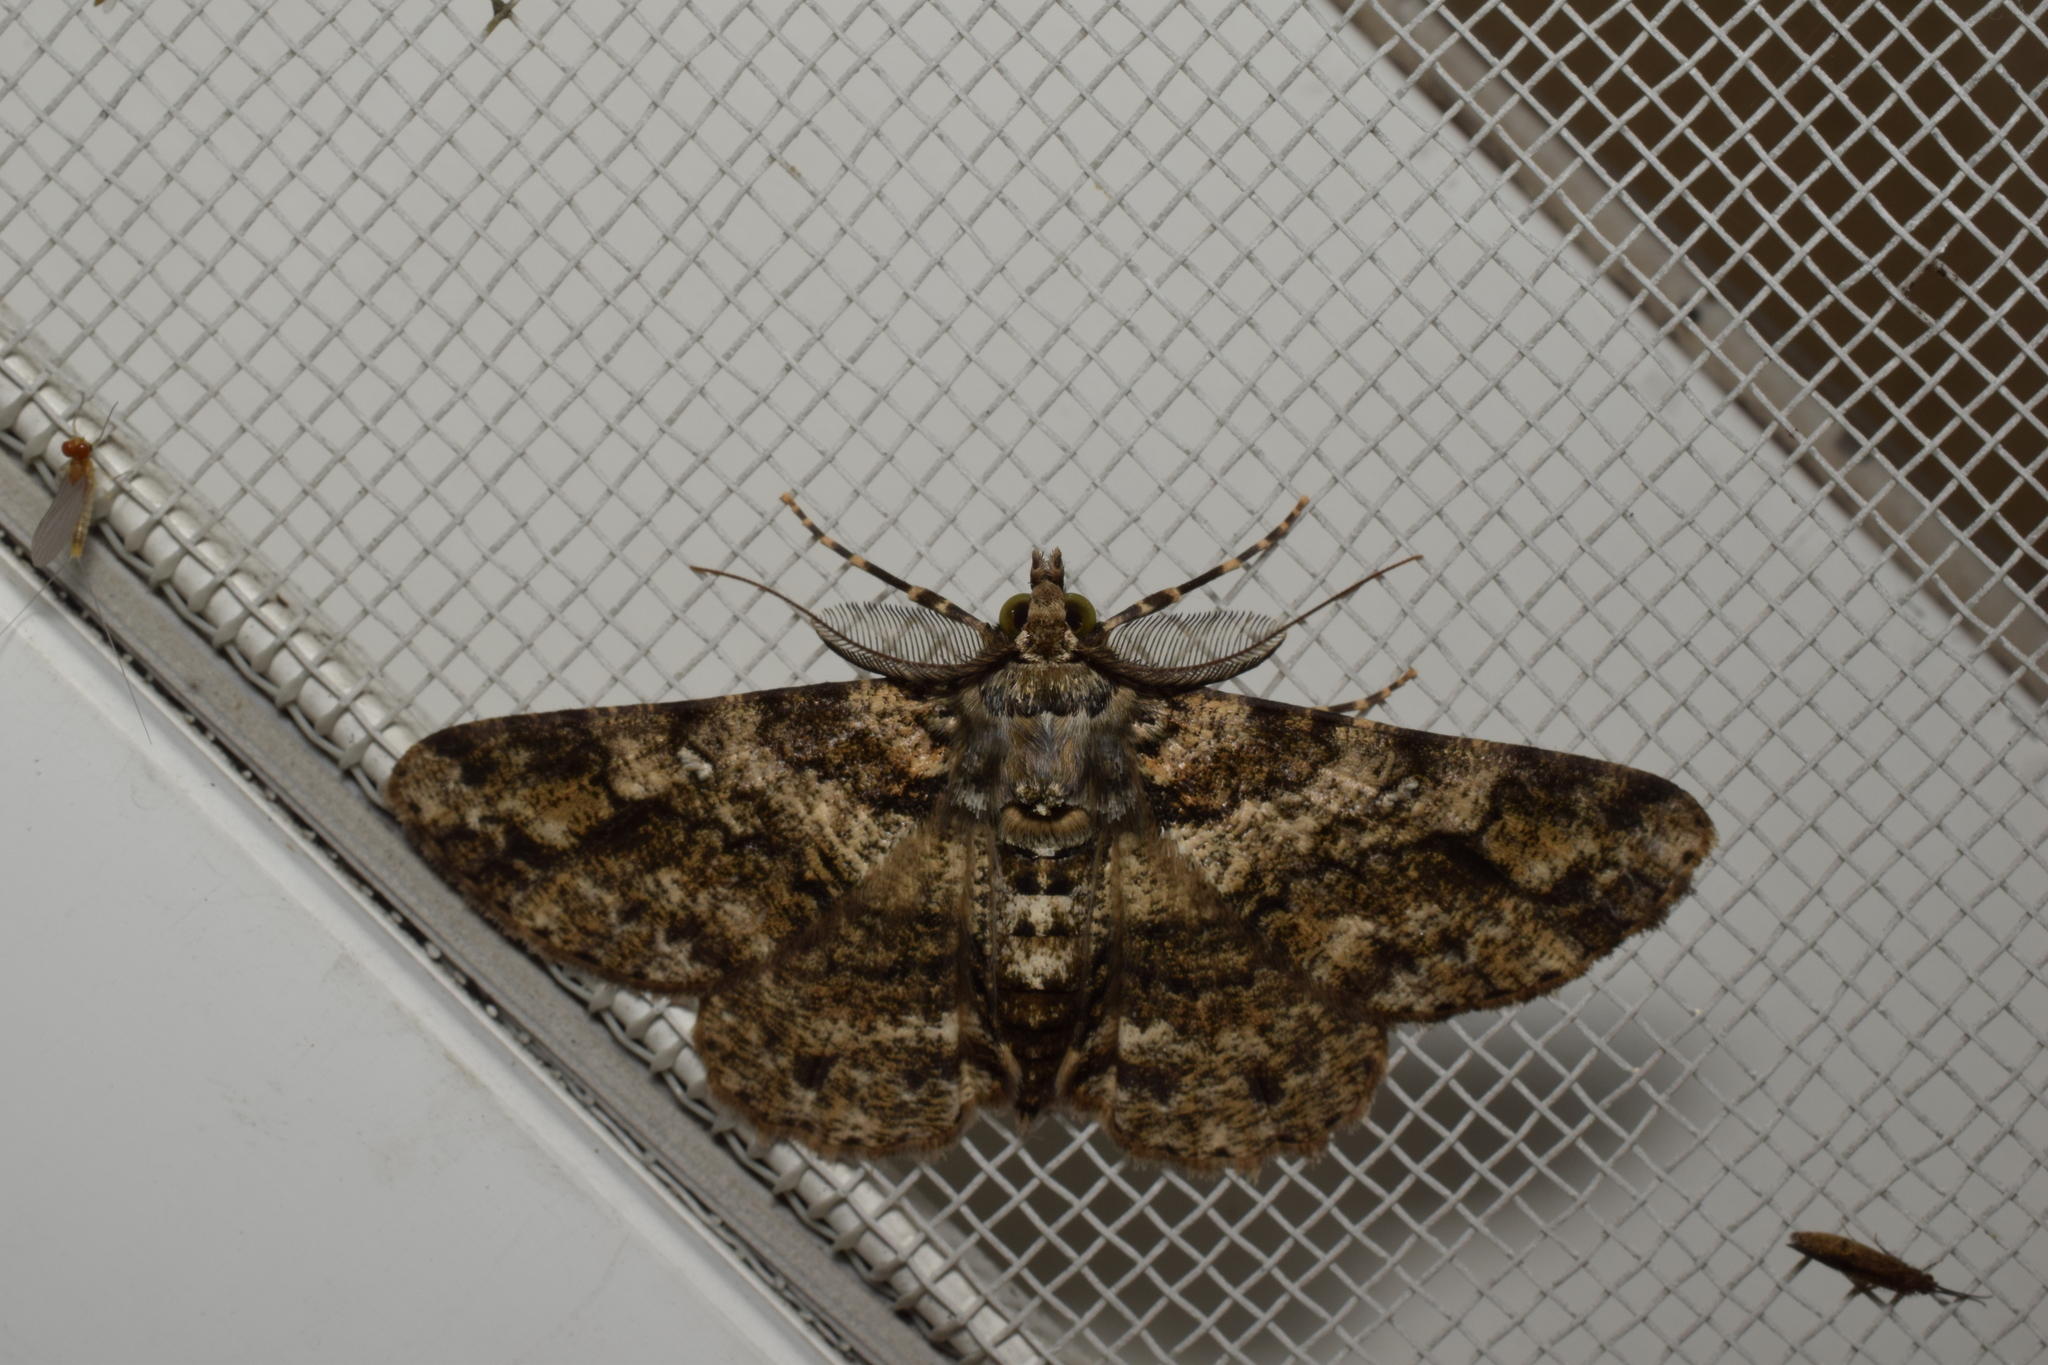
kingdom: Animalia
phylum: Arthropoda
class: Insecta
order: Lepidoptera
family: Geometridae
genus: Cleora
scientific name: Cleora minutaria
